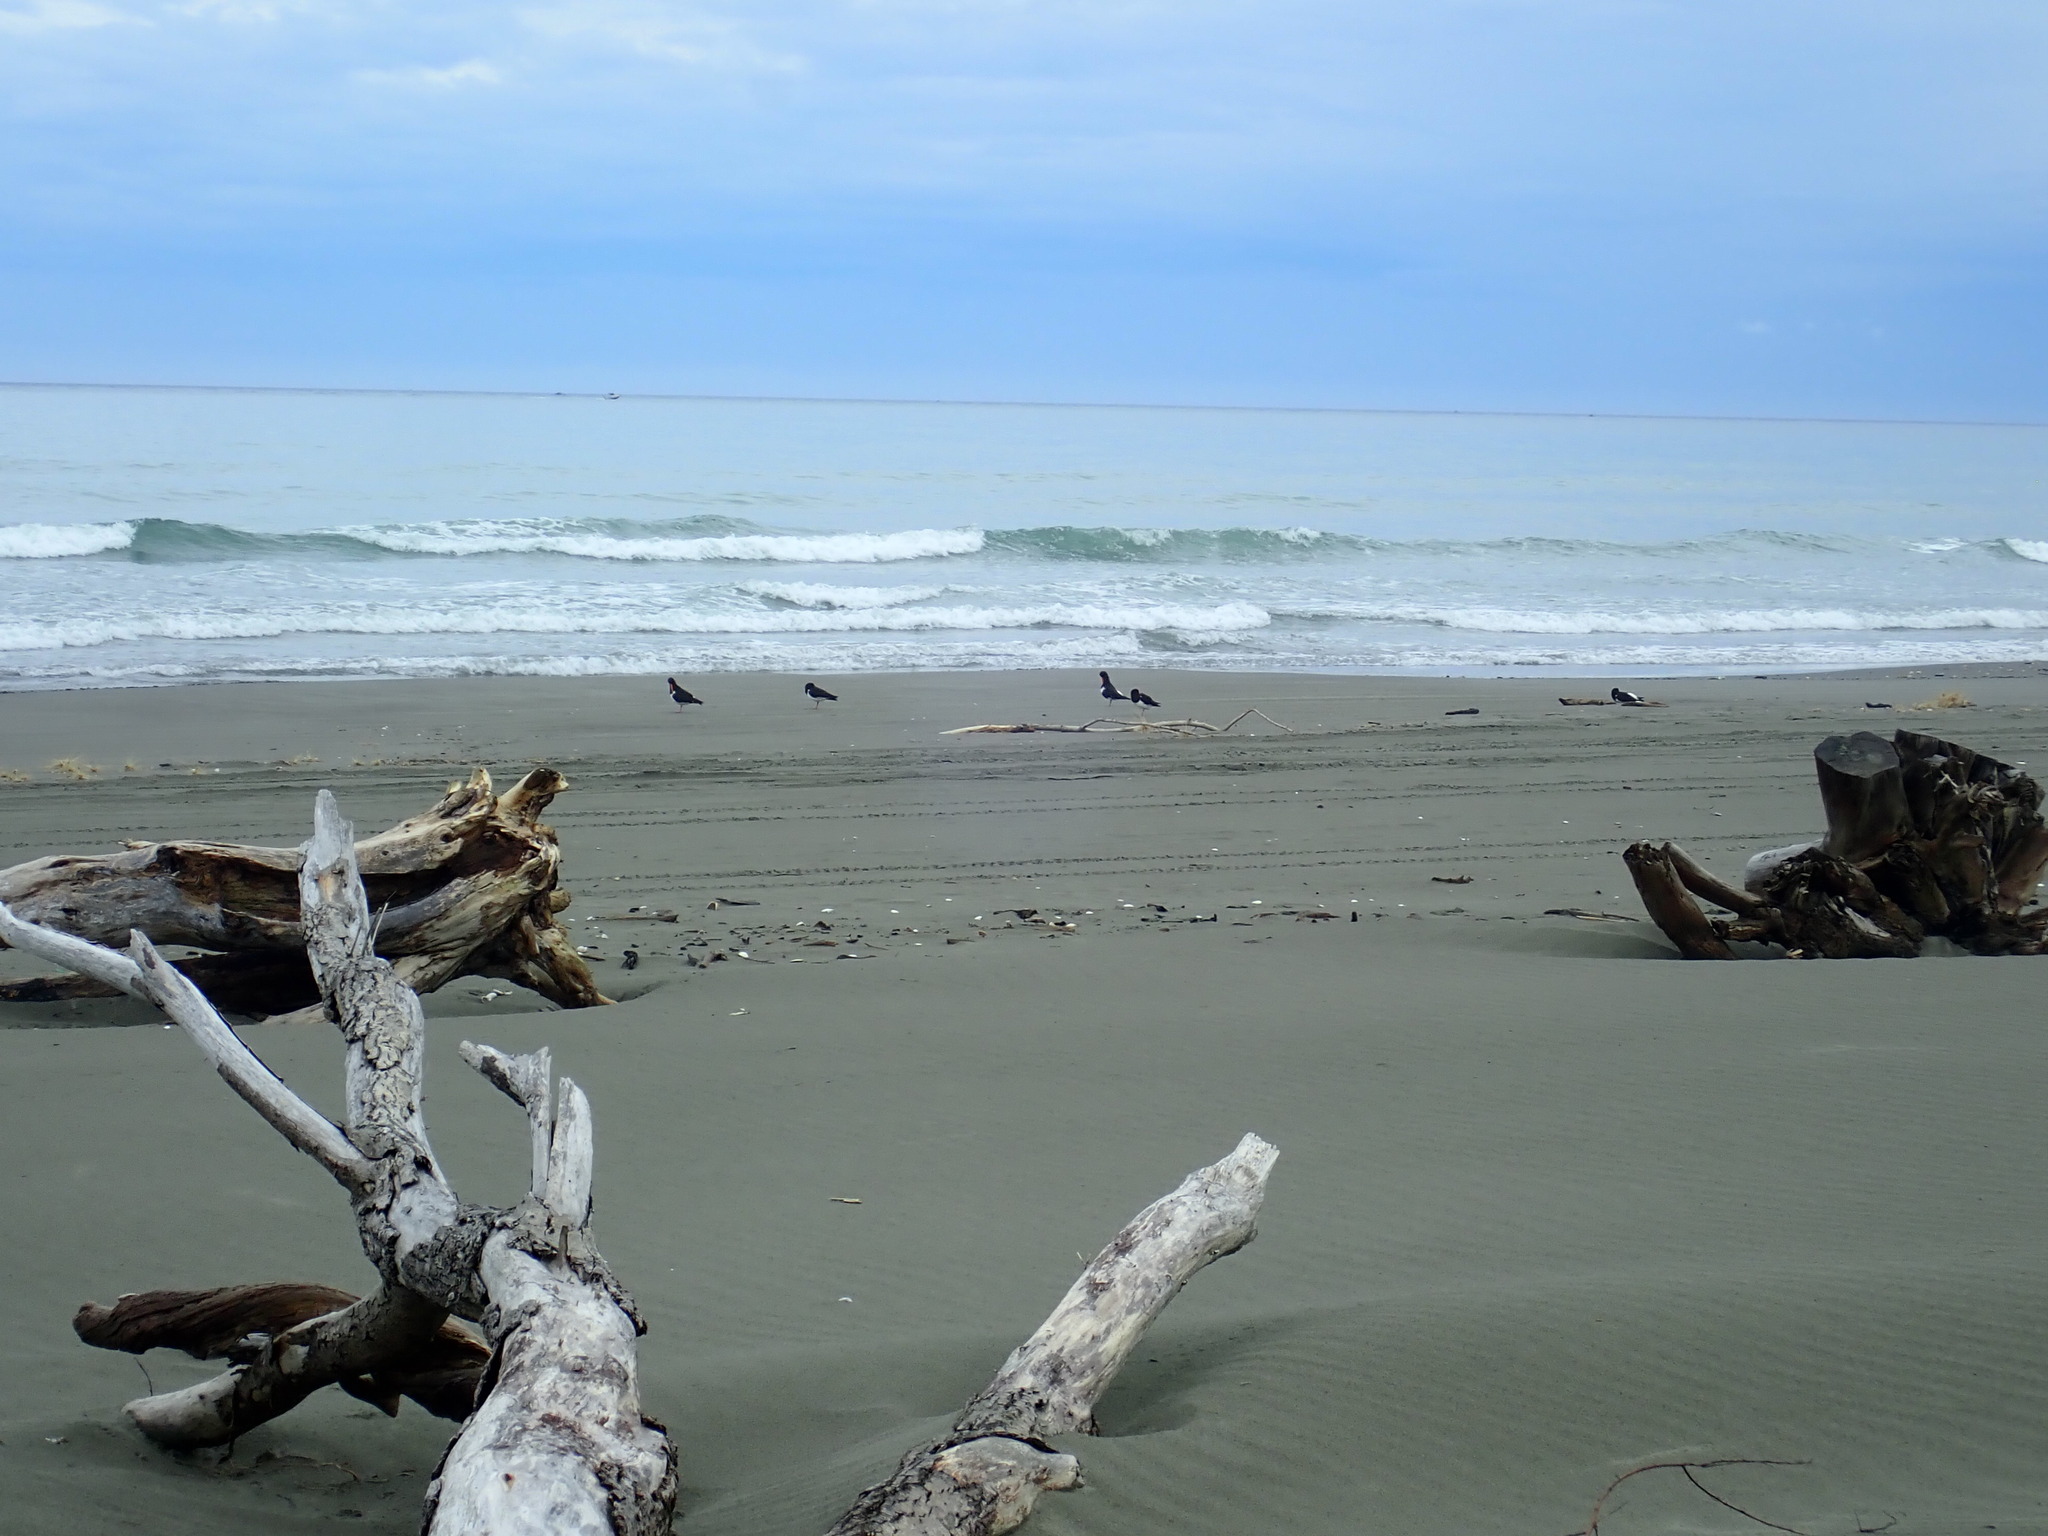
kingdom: Animalia
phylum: Chordata
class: Aves
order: Charadriiformes
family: Haematopodidae
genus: Haematopus
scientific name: Haematopus finschi
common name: South island oystercatcher
